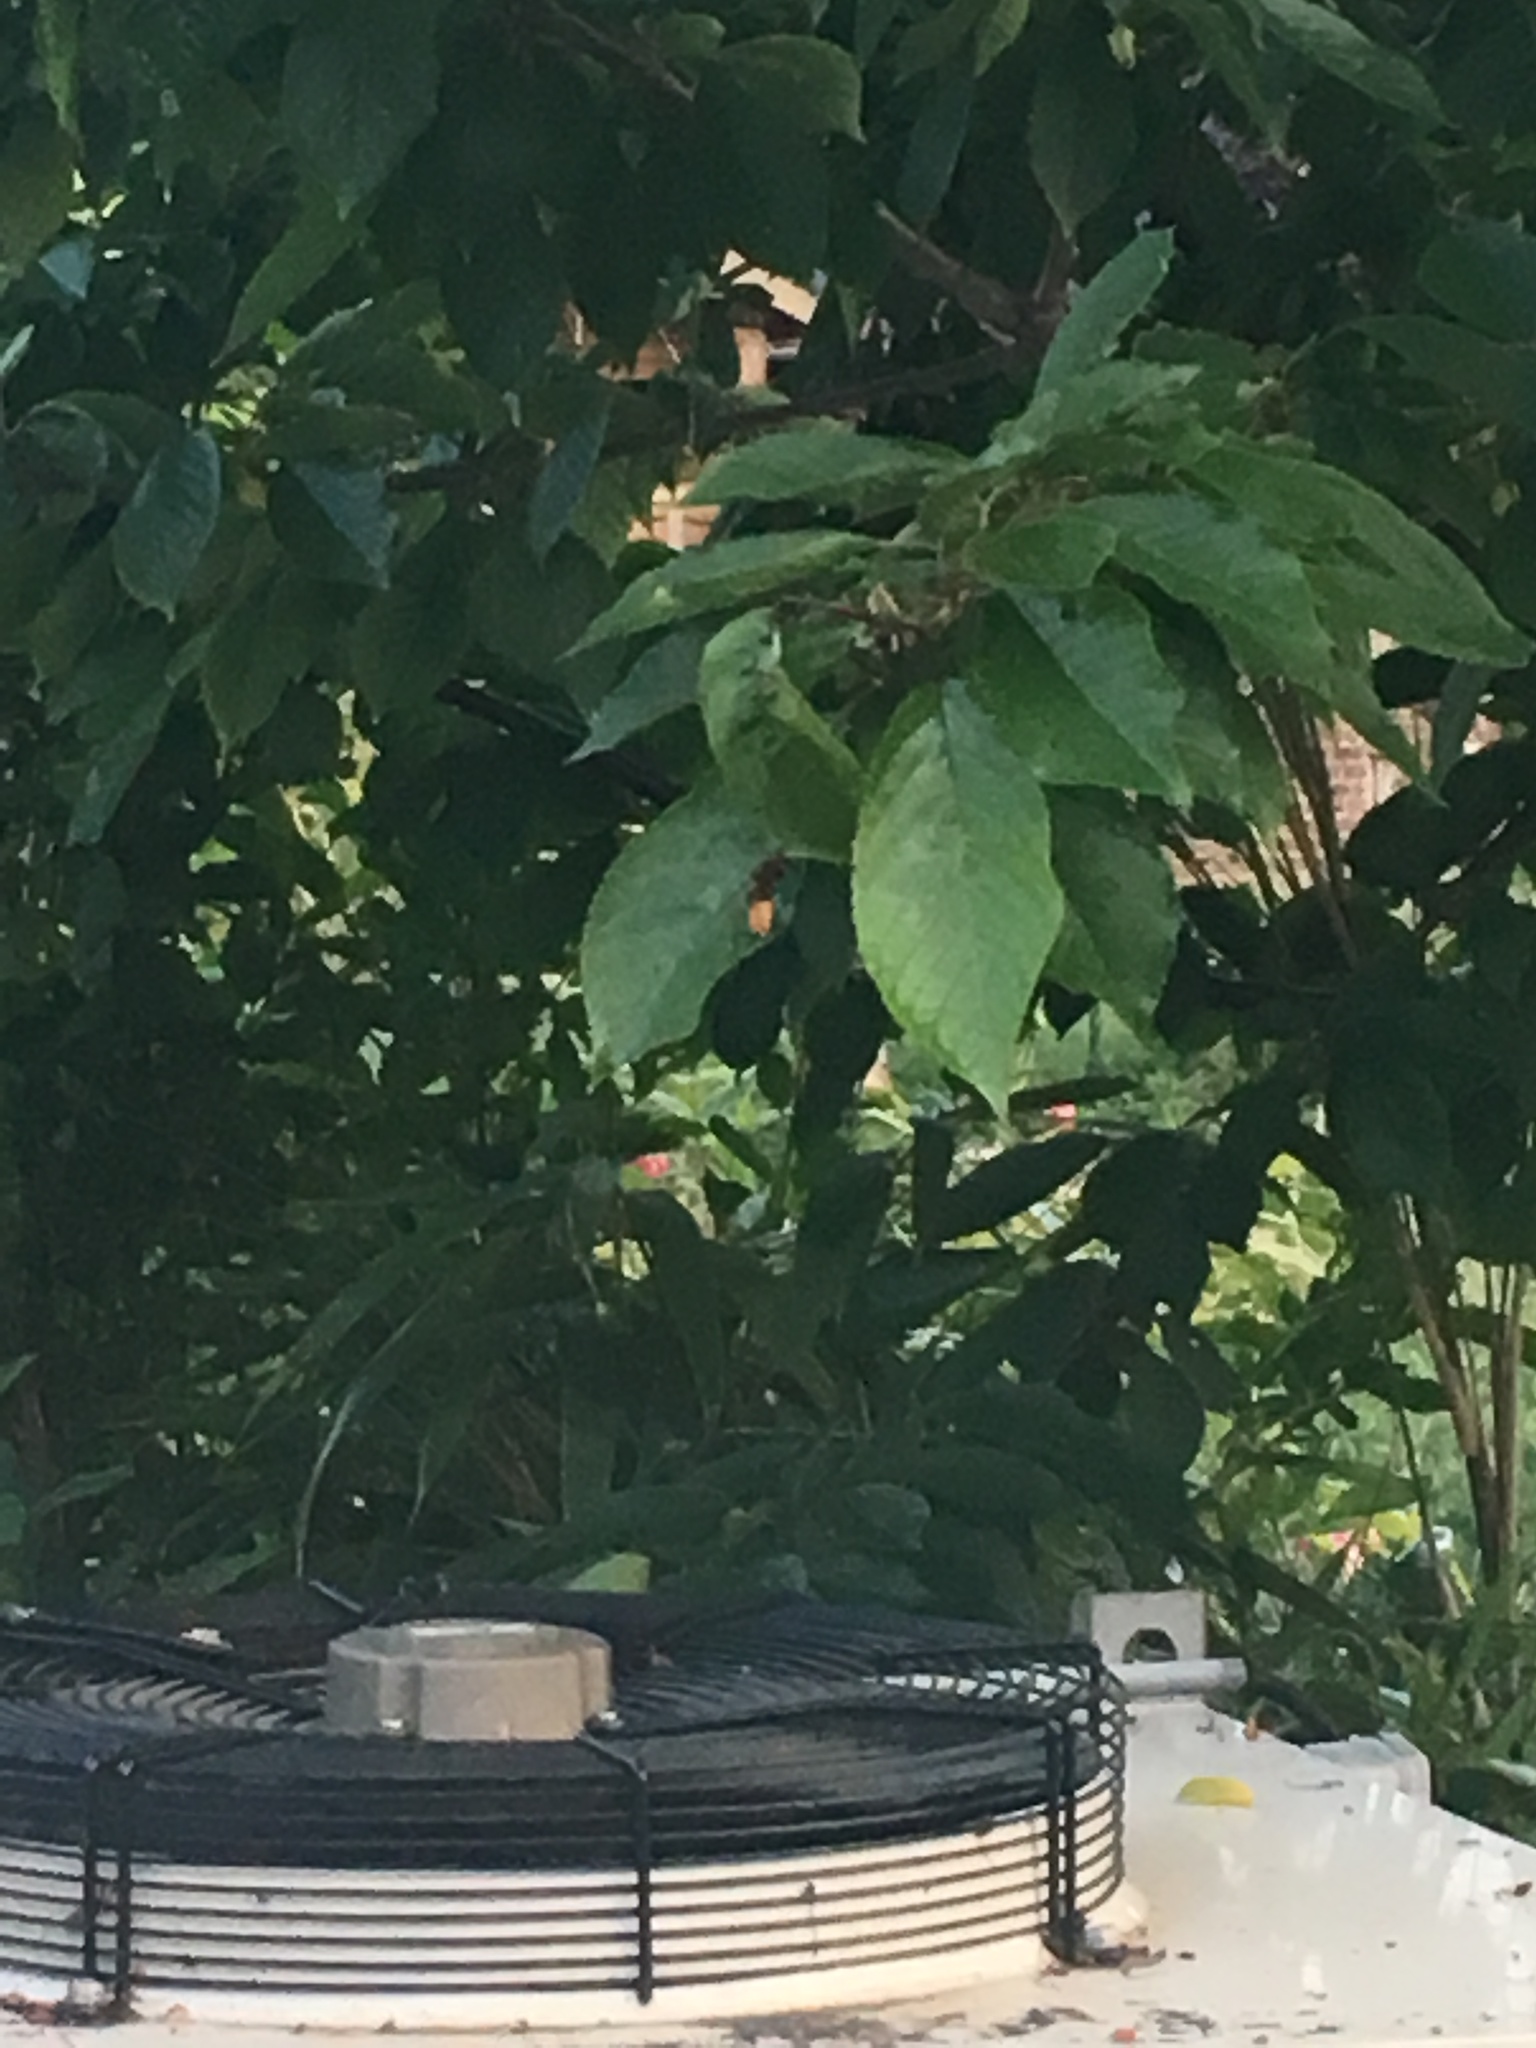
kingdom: Animalia
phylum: Arthropoda
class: Insecta
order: Hymenoptera
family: Vespidae
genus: Vespa
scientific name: Vespa crabro
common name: Hornet
